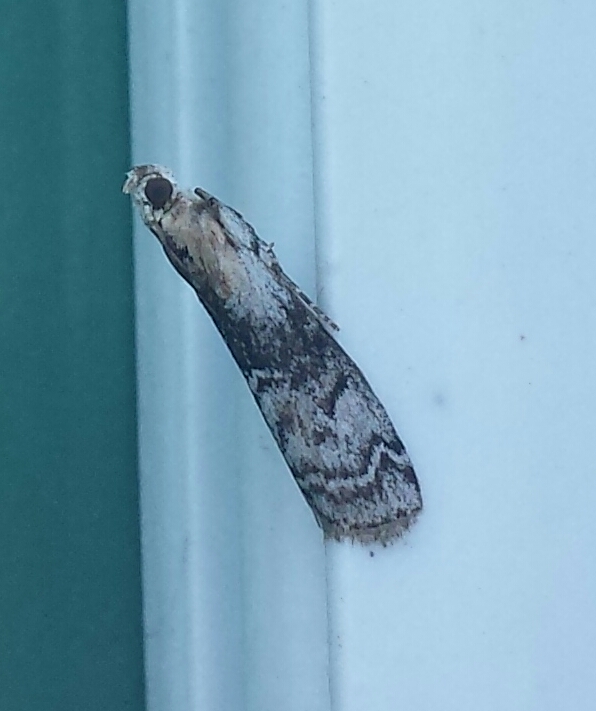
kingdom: Animalia
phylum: Arthropoda
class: Insecta
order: Lepidoptera
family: Pyralidae
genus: Glyptocera
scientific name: Glyptocera consobrinella
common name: Viburnum glyptocera moth
